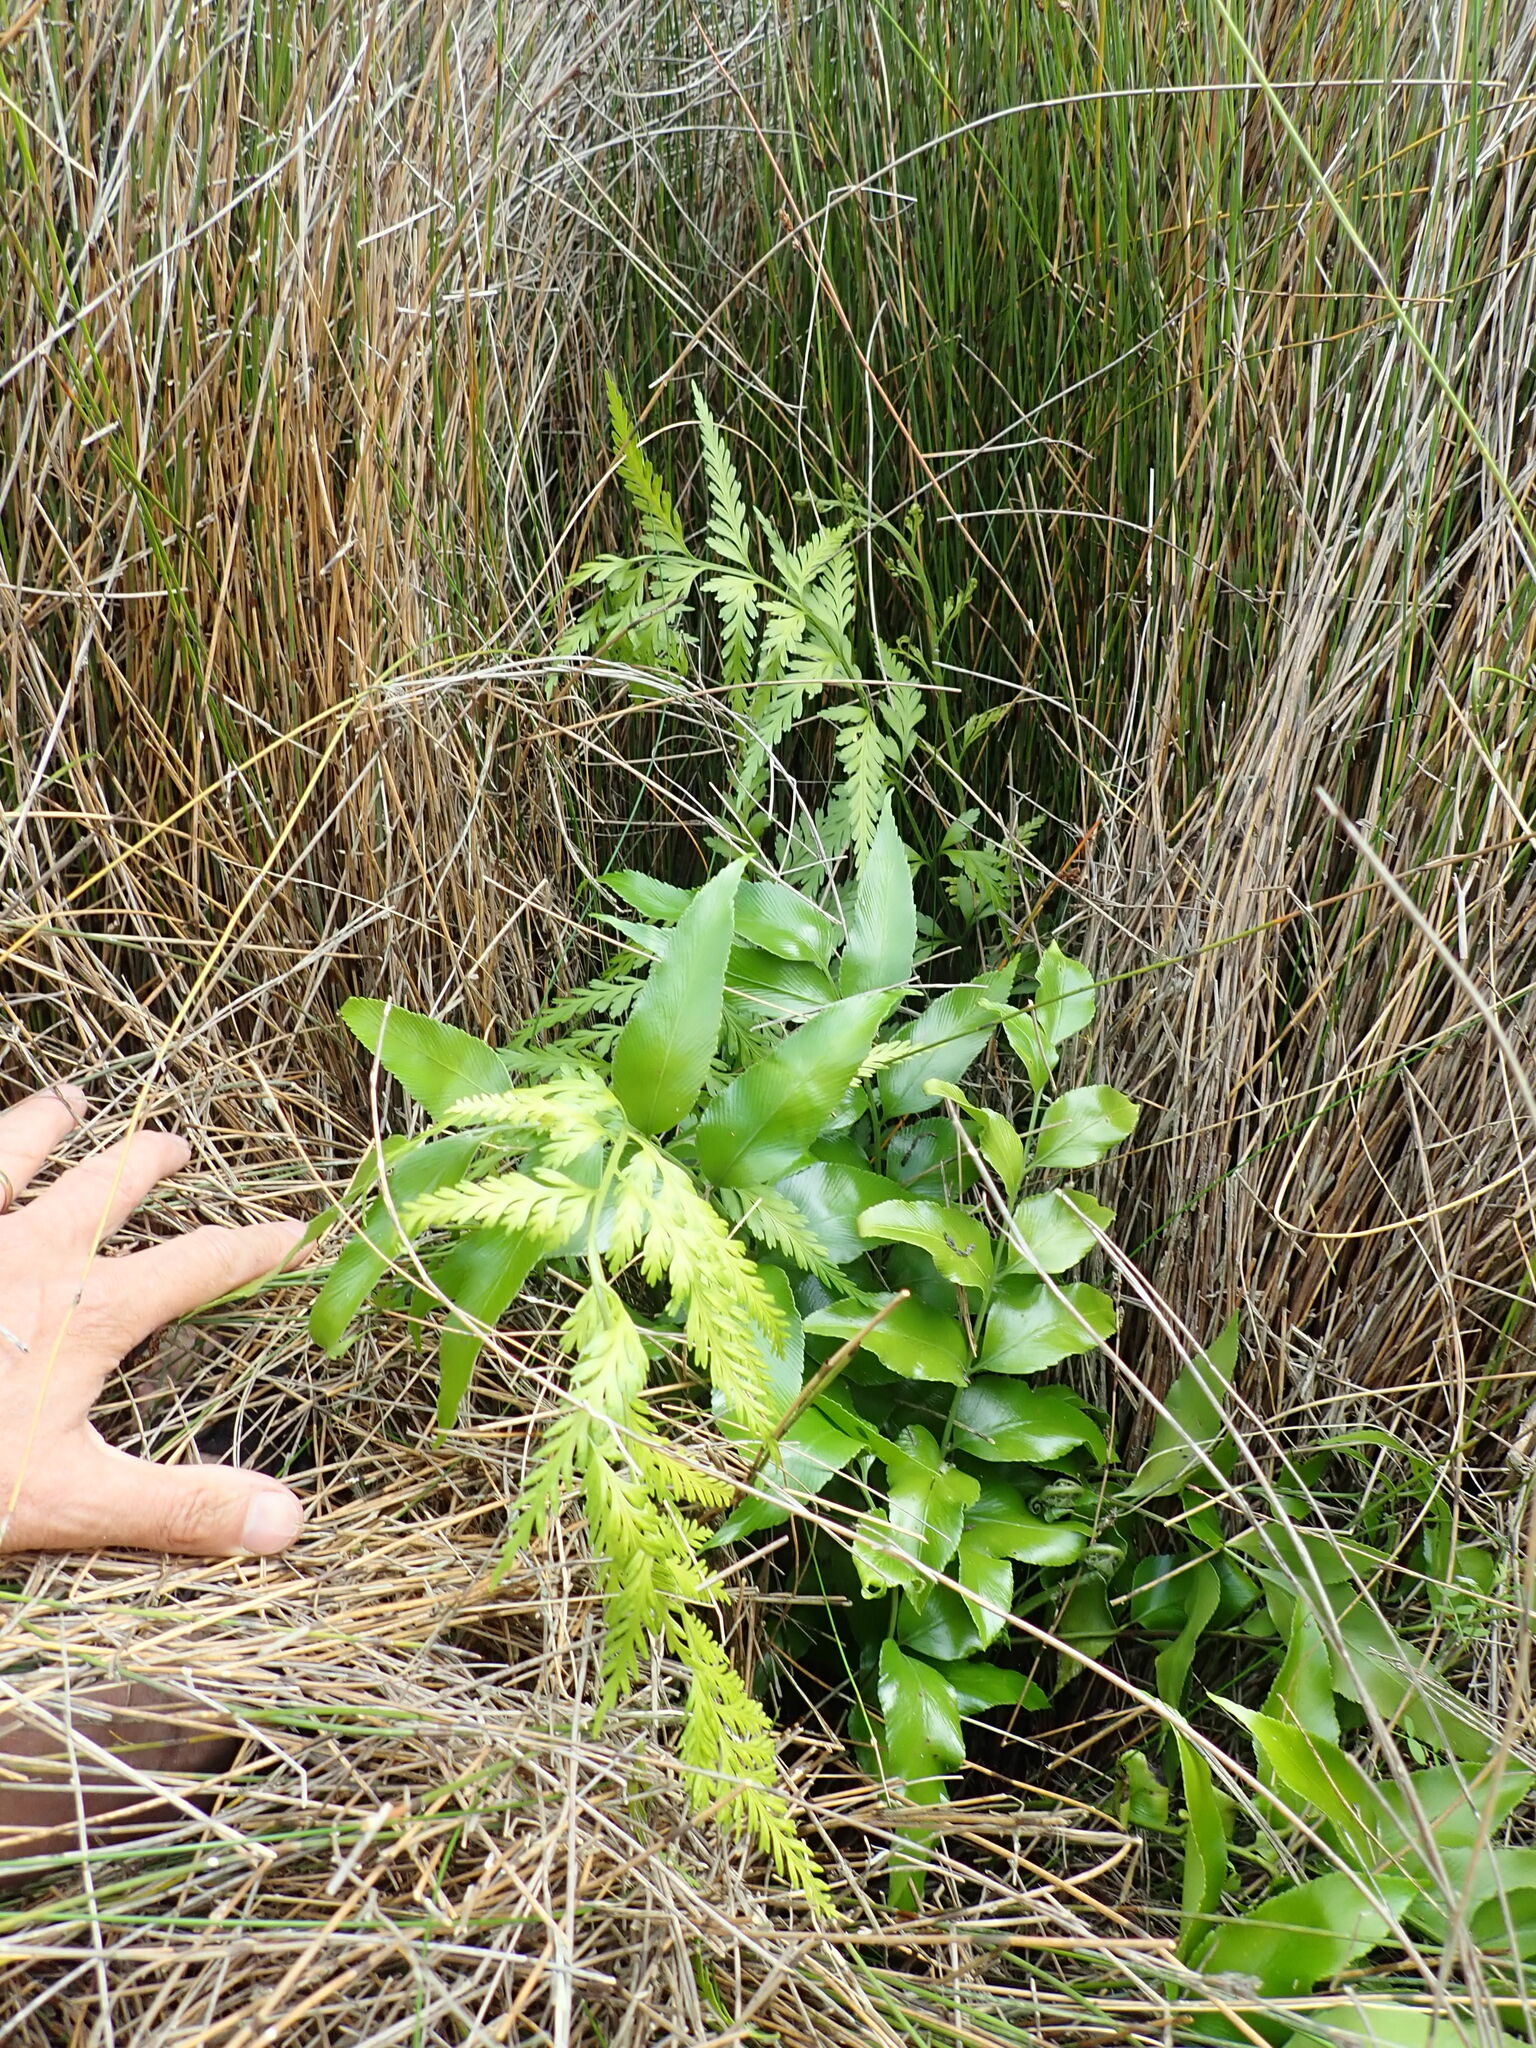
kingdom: Plantae
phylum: Tracheophyta
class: Polypodiopsida
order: Polypodiales
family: Aspleniaceae
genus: Asplenium
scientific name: Asplenium oblongifolium
